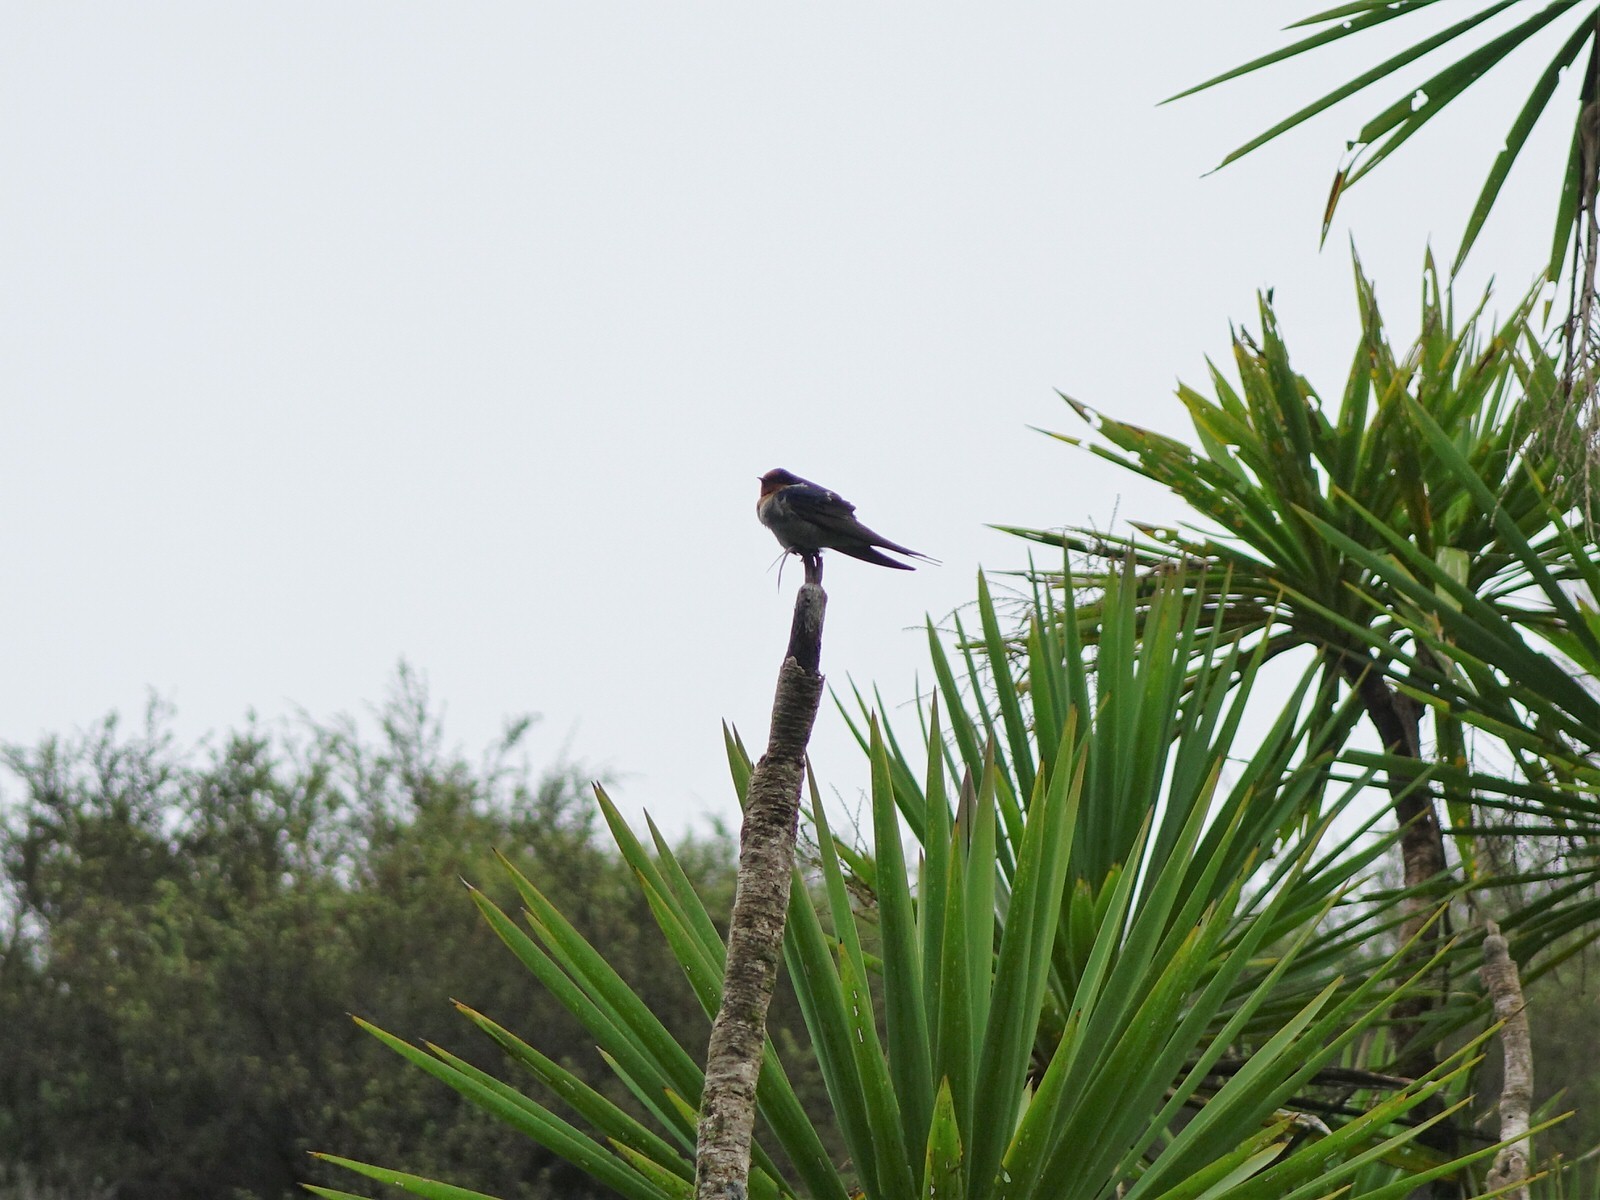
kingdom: Animalia
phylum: Chordata
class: Aves
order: Passeriformes
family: Hirundinidae
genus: Hirundo
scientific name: Hirundo neoxena
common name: Welcome swallow
